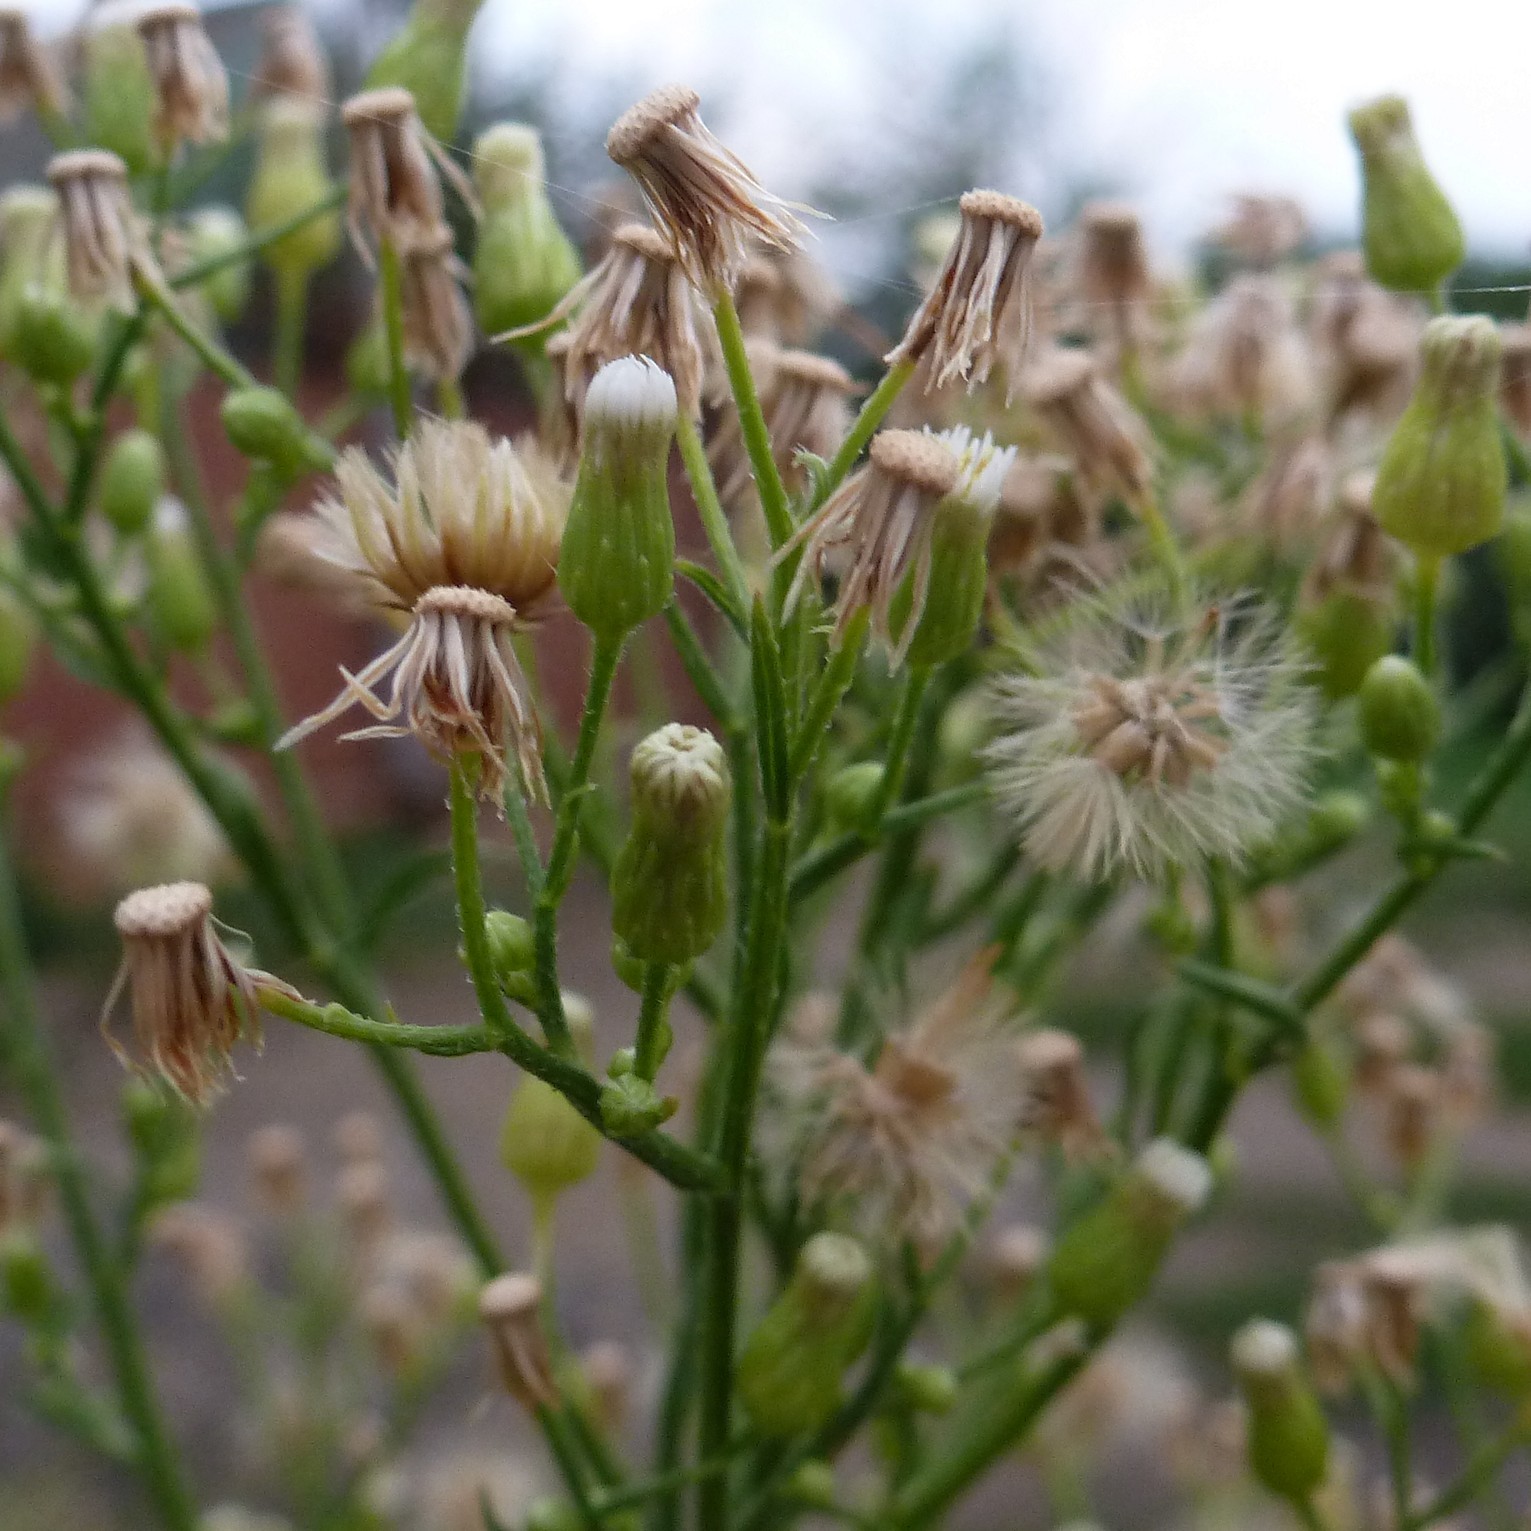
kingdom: Plantae
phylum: Tracheophyta
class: Magnoliopsida
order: Asterales
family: Asteraceae
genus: Erigeron
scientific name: Erigeron canadensis
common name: Canadian fleabane
